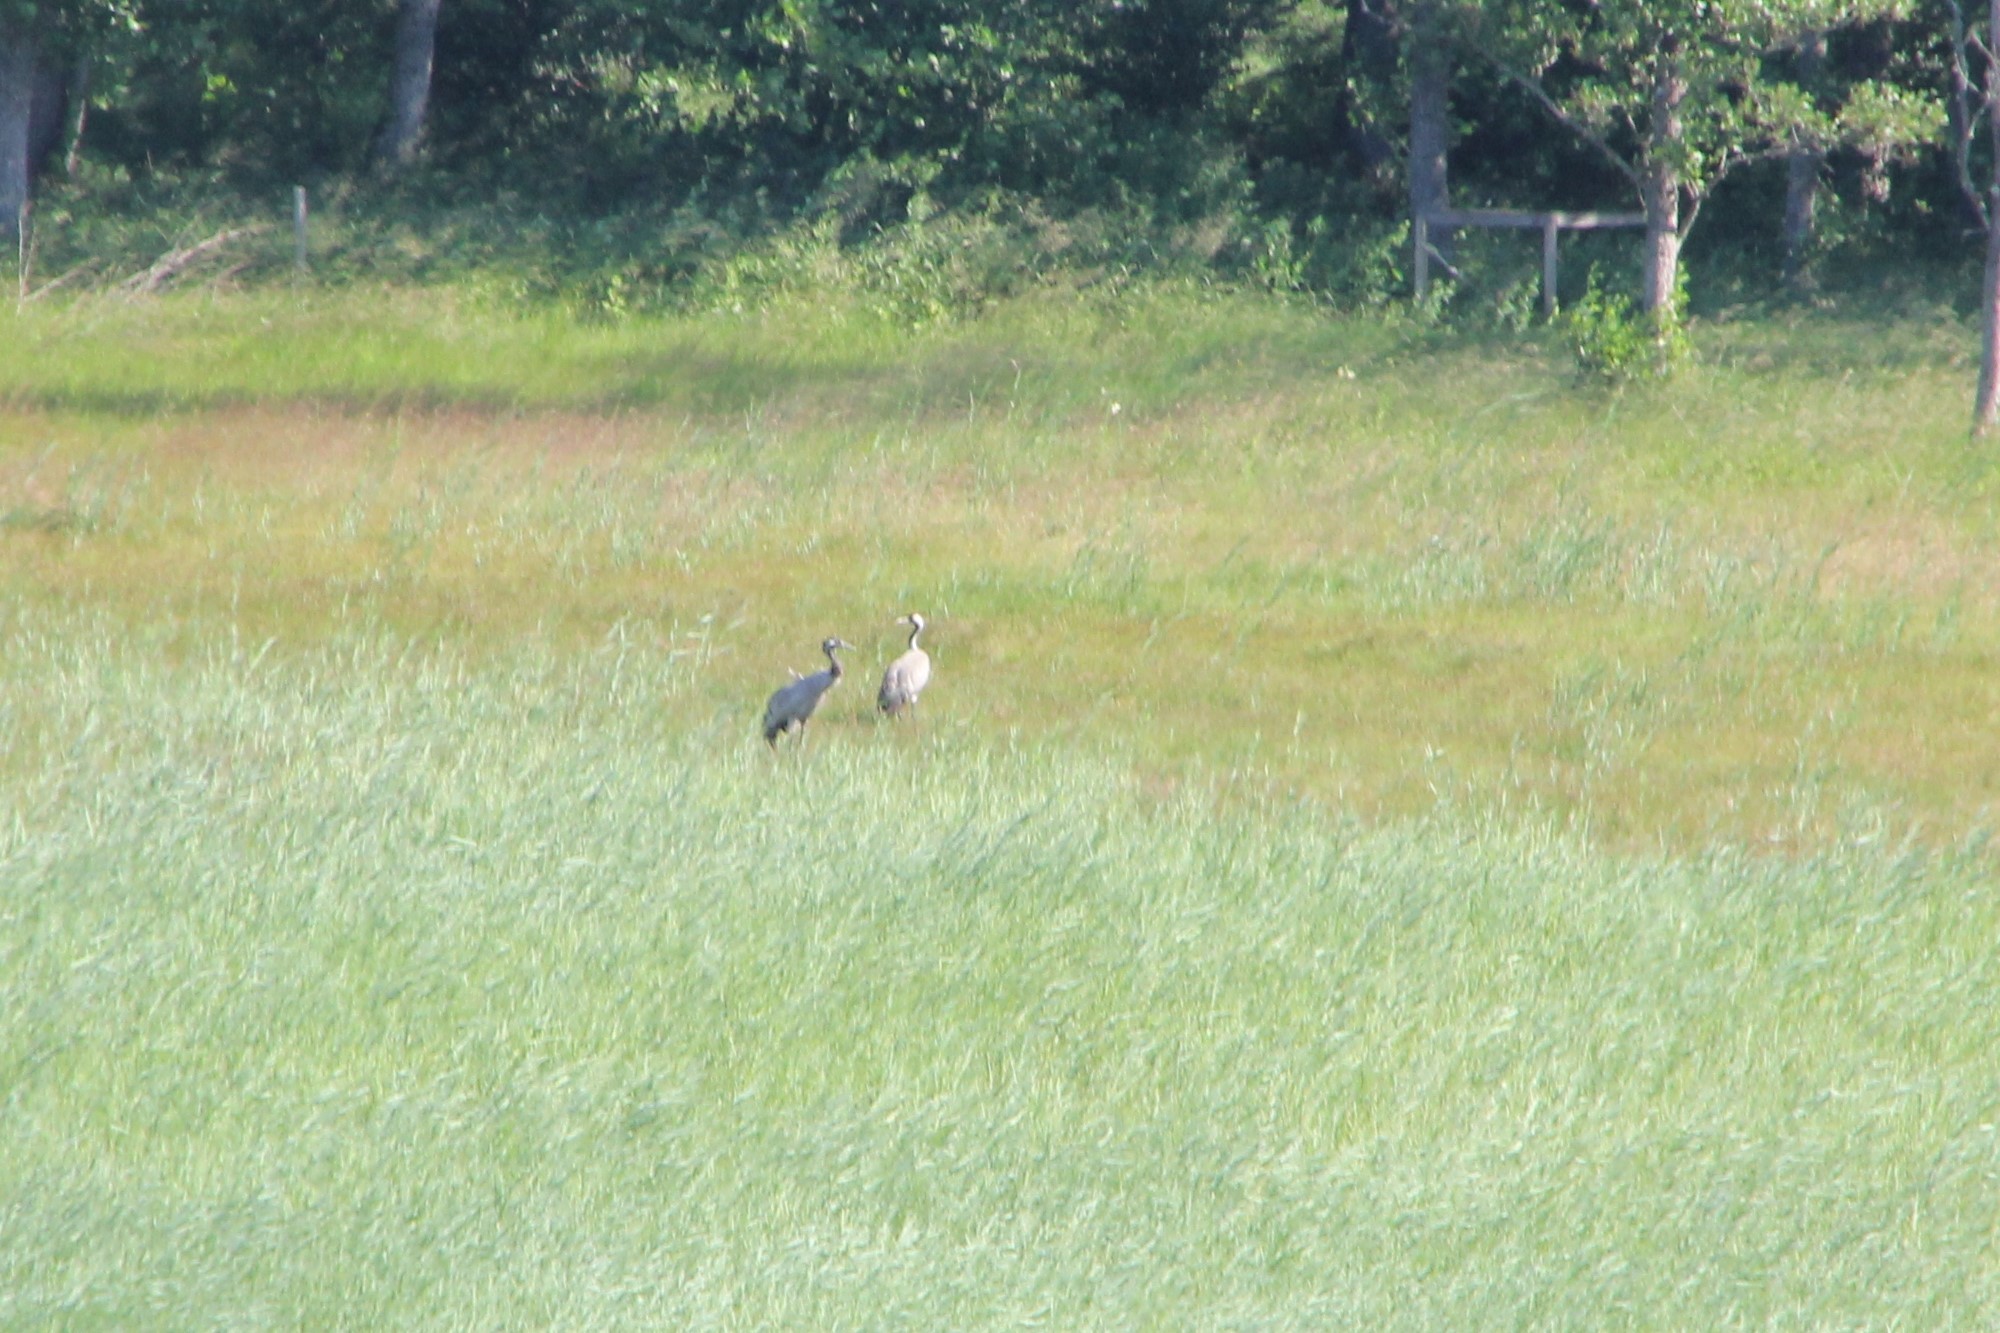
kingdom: Animalia
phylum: Chordata
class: Aves
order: Gruiformes
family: Gruidae
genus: Grus
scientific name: Grus grus
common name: Common crane
